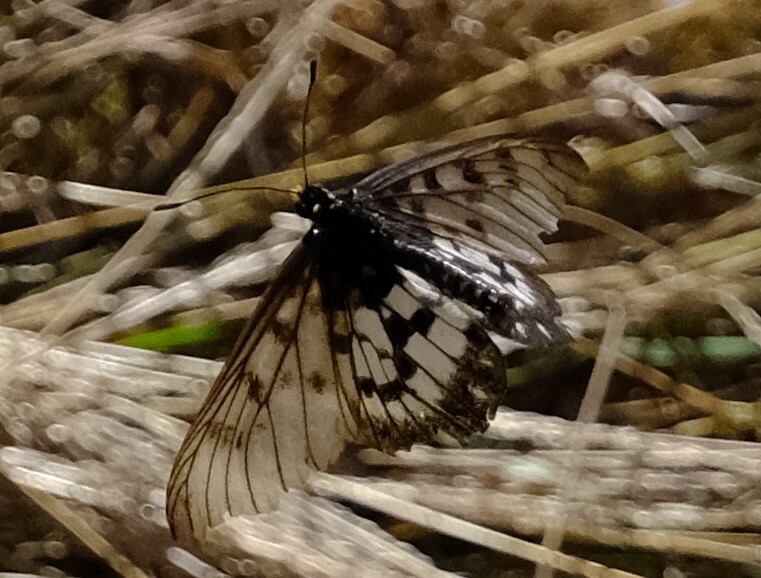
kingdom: Animalia
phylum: Arthropoda
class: Insecta
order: Lepidoptera
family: Nymphalidae
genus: Acraea
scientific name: Acraea andromacha
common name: Glasswing
